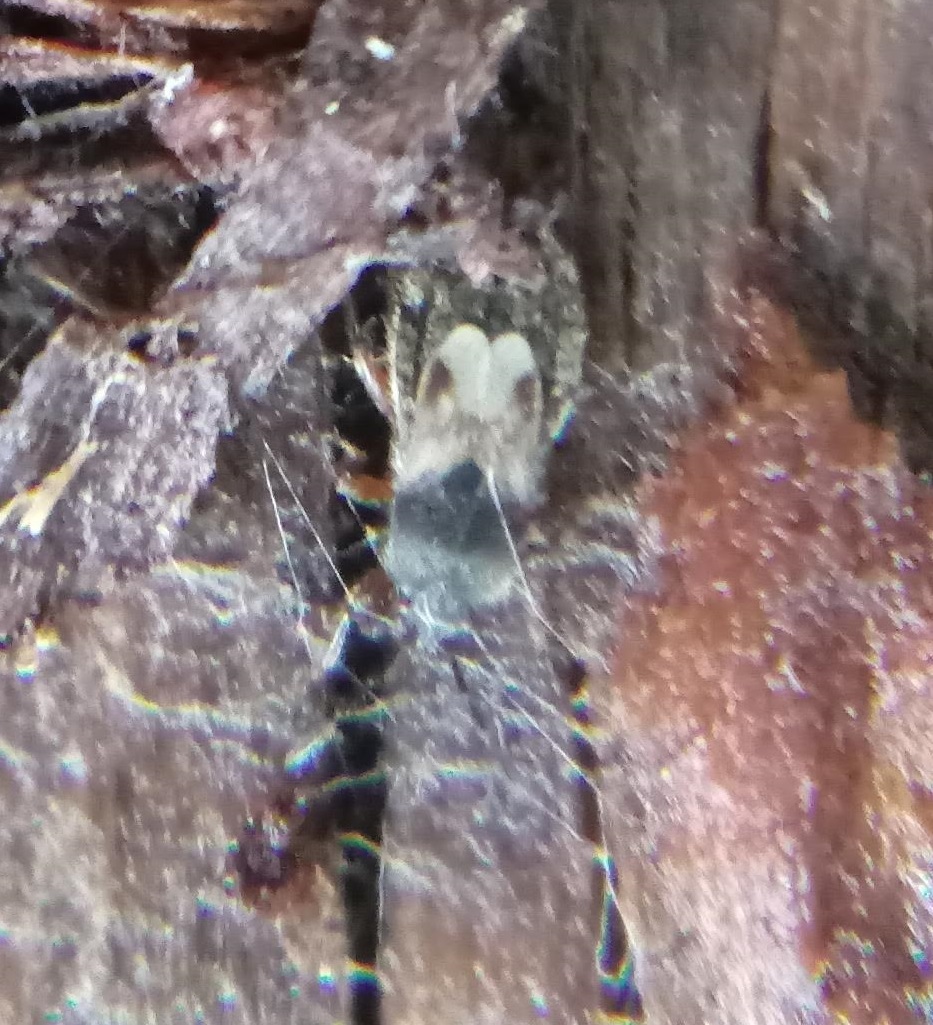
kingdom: Animalia
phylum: Arthropoda
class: Insecta
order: Hemiptera
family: Blissidae
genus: Blissus
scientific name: Blissus leucopterus
